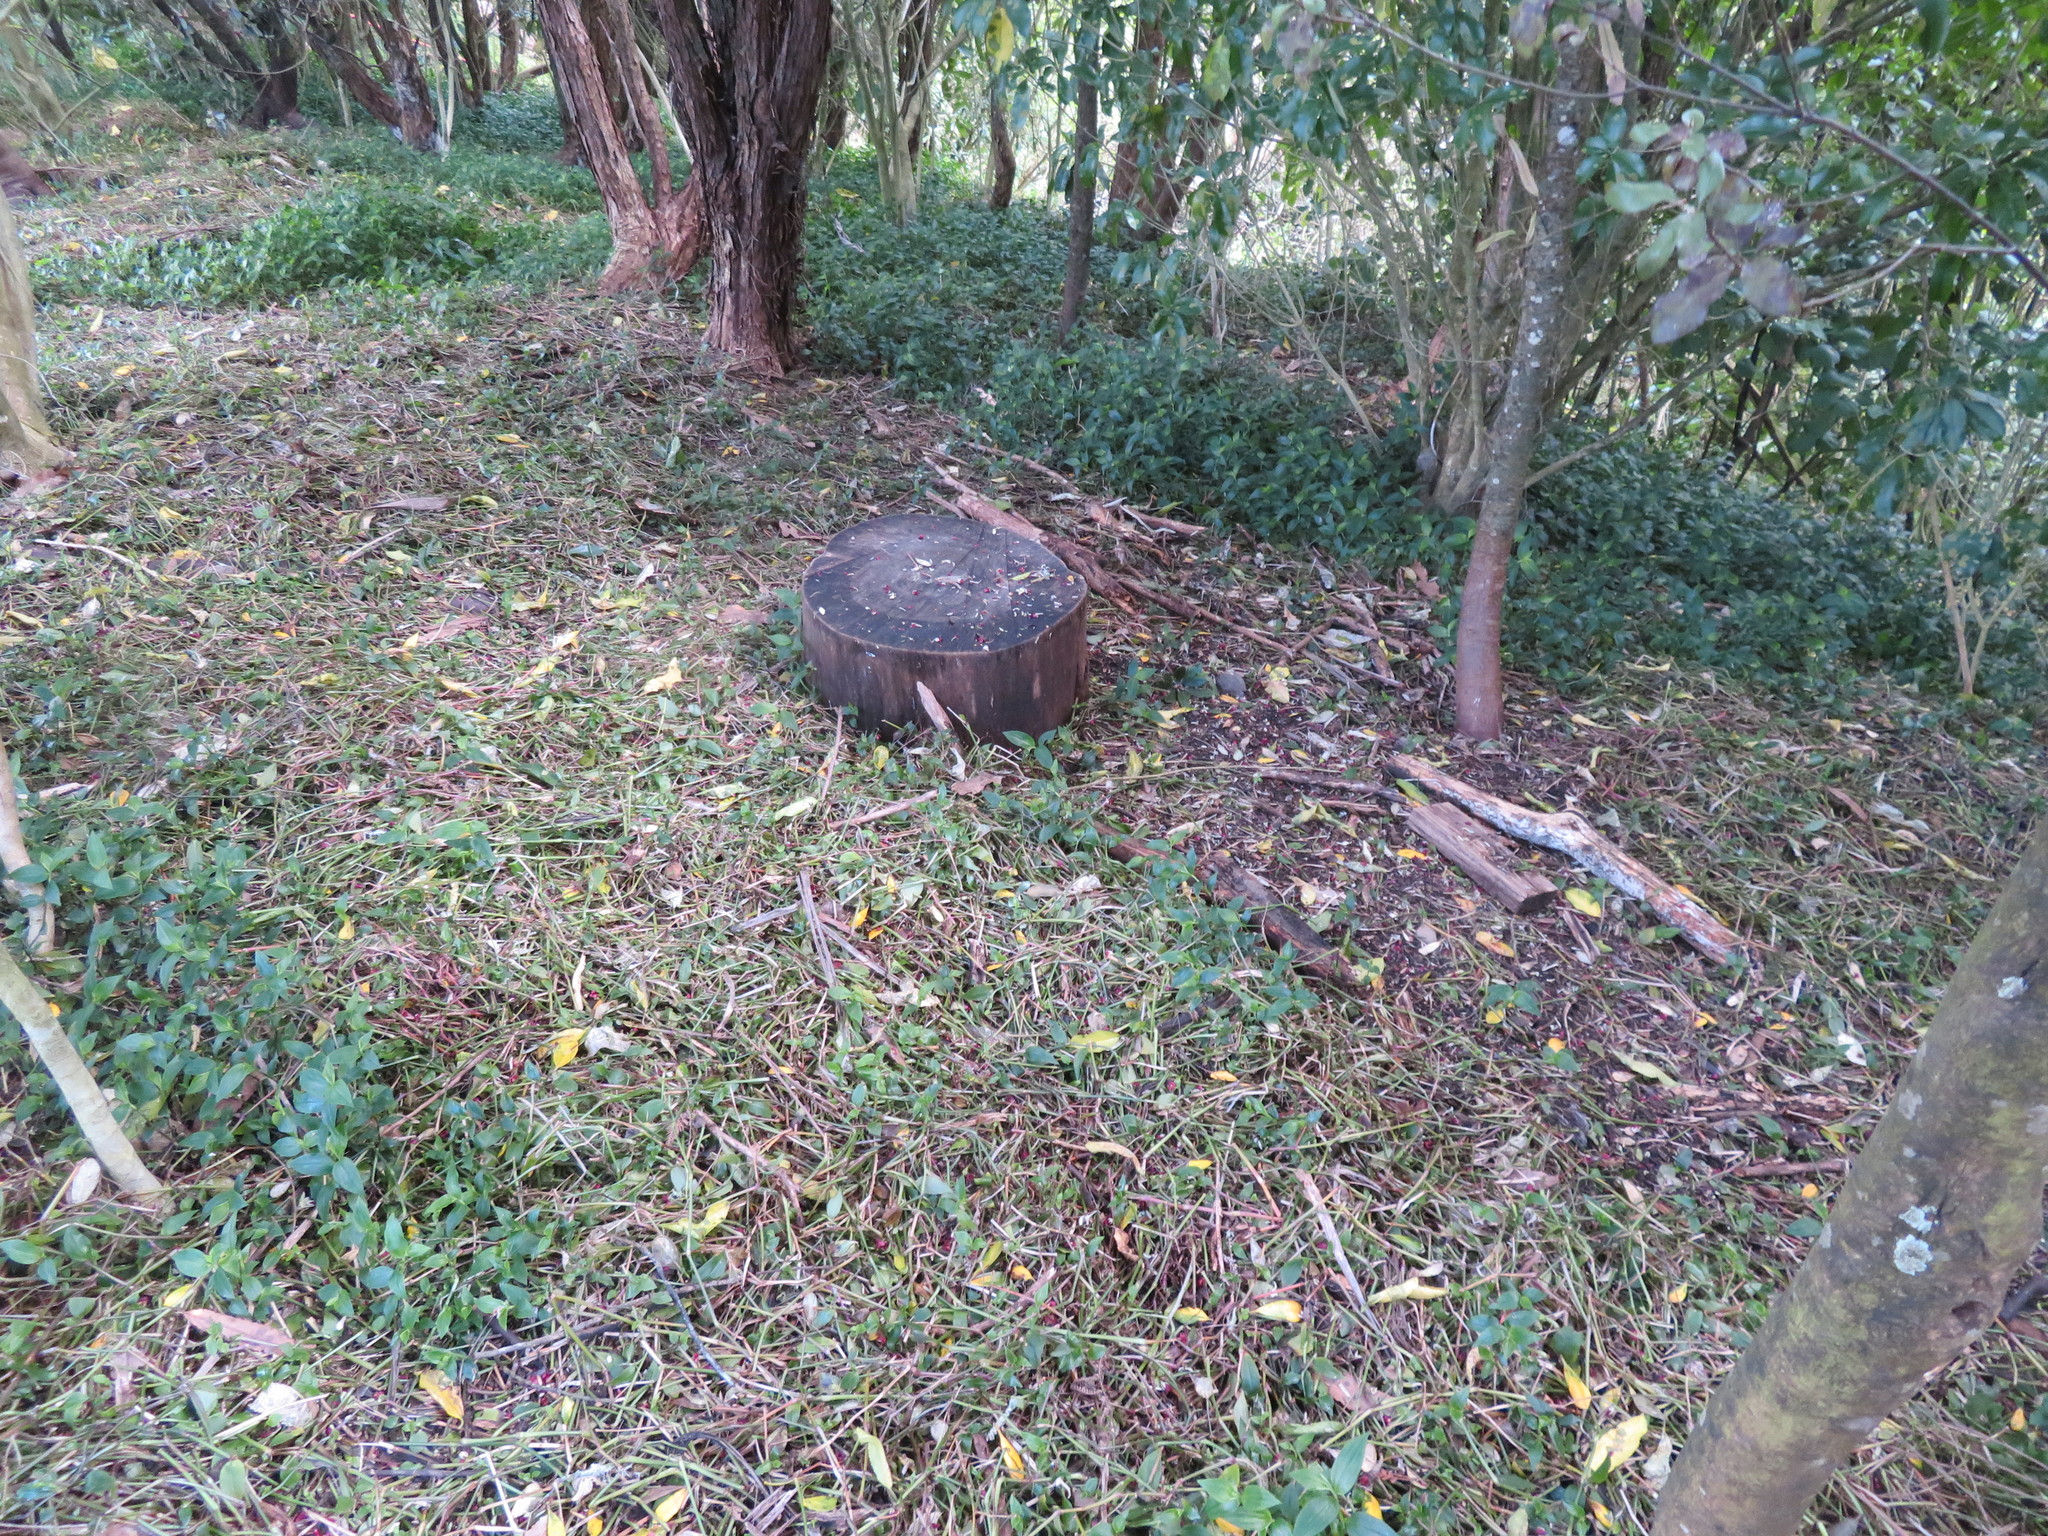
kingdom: Plantae
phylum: Tracheophyta
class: Liliopsida
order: Commelinales
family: Commelinaceae
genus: Tradescantia
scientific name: Tradescantia fluminensis
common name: Wandering-jew
